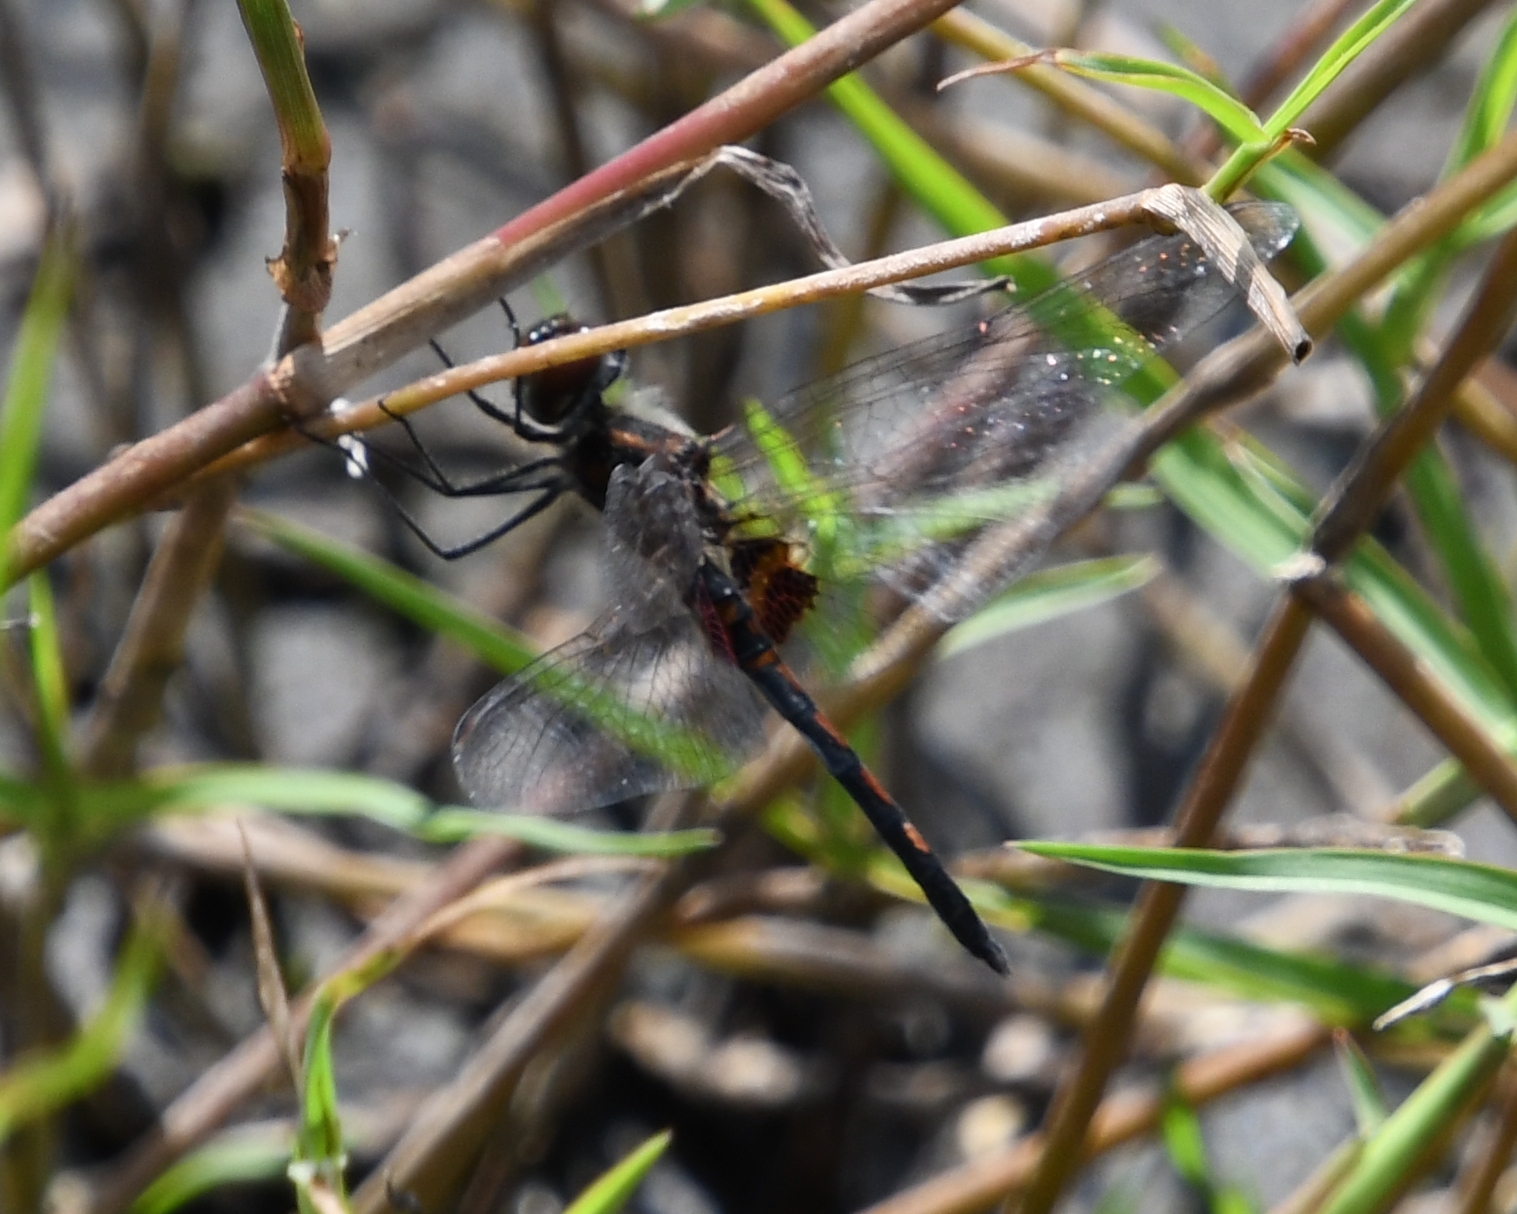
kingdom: Animalia
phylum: Arthropoda
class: Insecta
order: Odonata
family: Libellulidae
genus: Celithemis
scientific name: Celithemis ornata
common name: Ornate pennant
